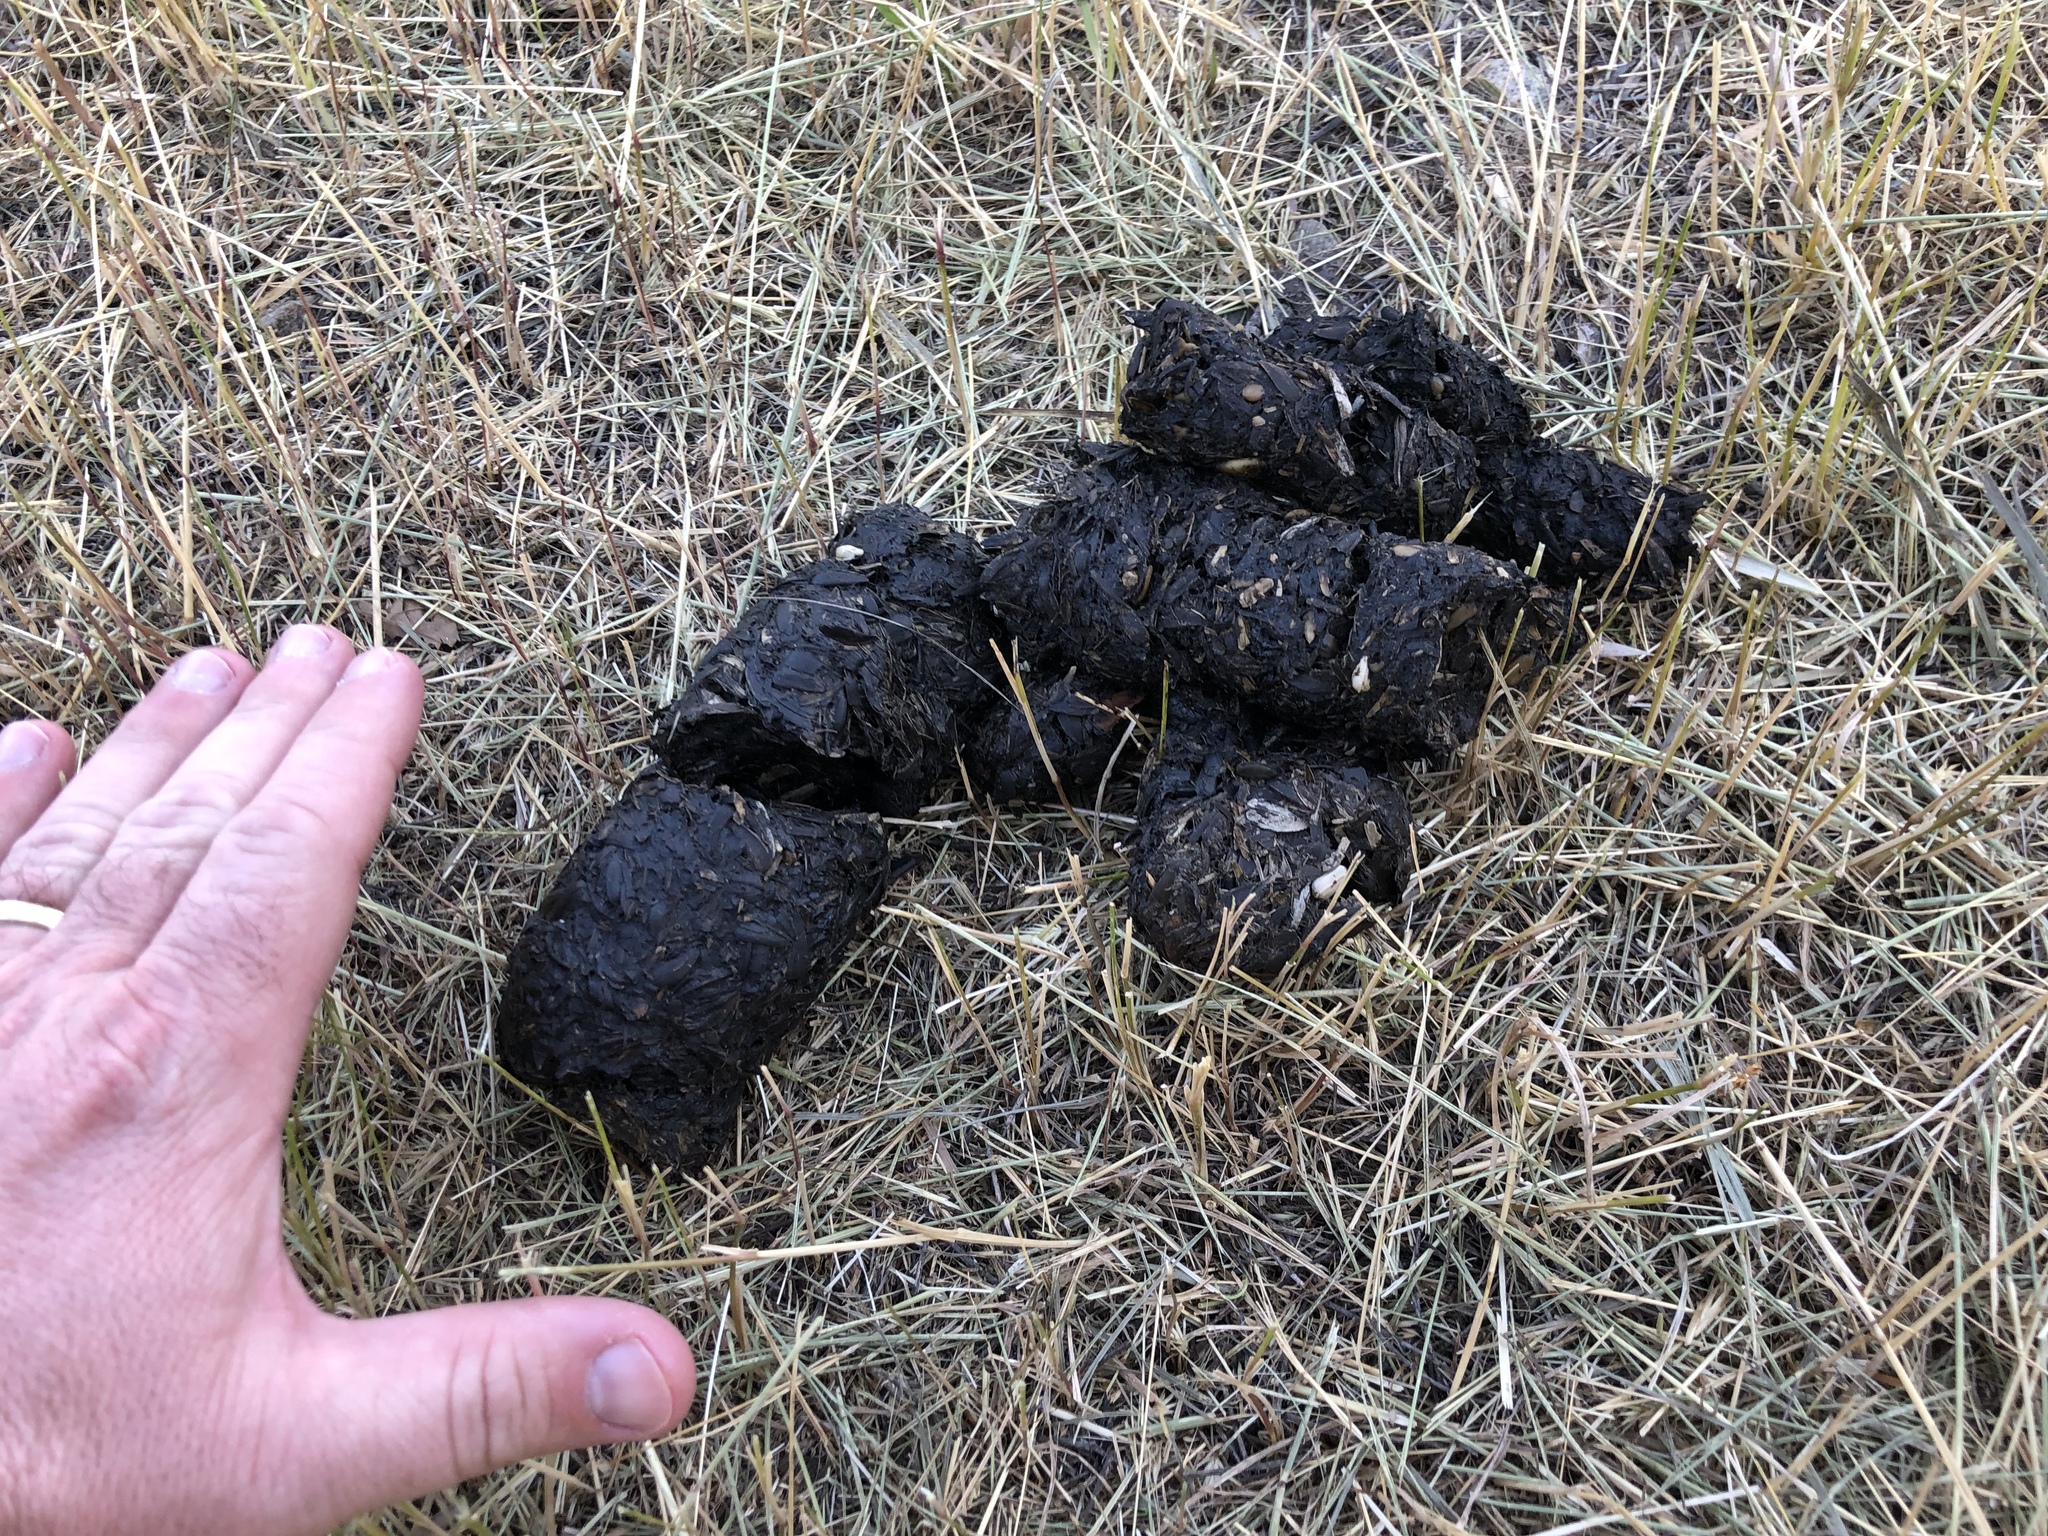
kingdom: Animalia
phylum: Chordata
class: Mammalia
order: Carnivora
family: Ursidae
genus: Ursus
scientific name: Ursus americanus
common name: American black bear
